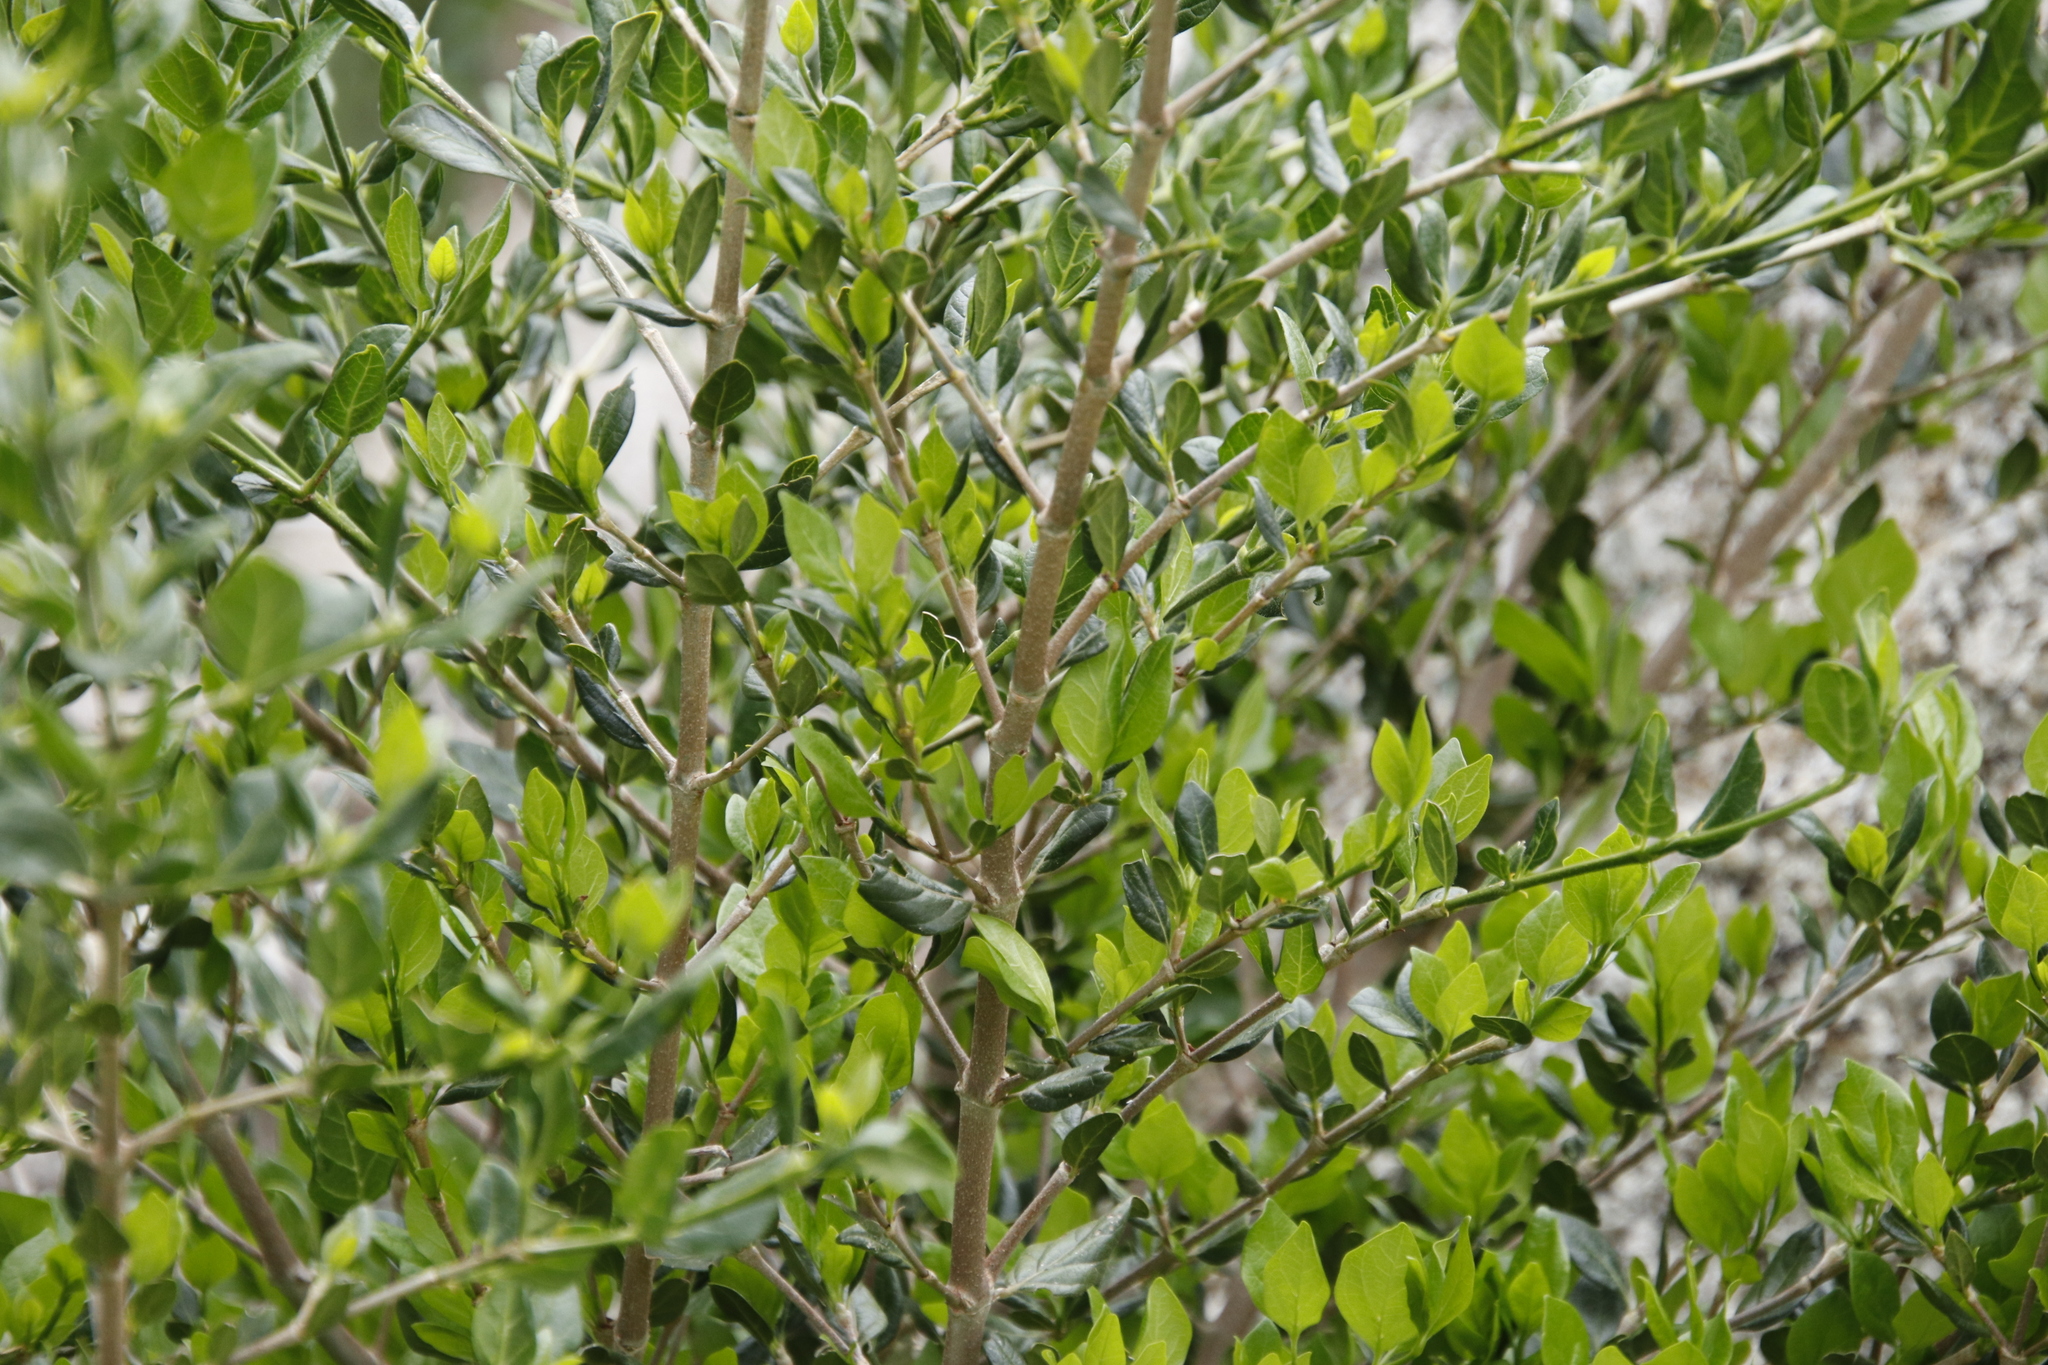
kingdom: Plantae
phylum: Tracheophyta
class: Magnoliopsida
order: Gentianales
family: Rubiaceae
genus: Afrocanthium
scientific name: Afrocanthium mundianum
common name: Rock-alder
